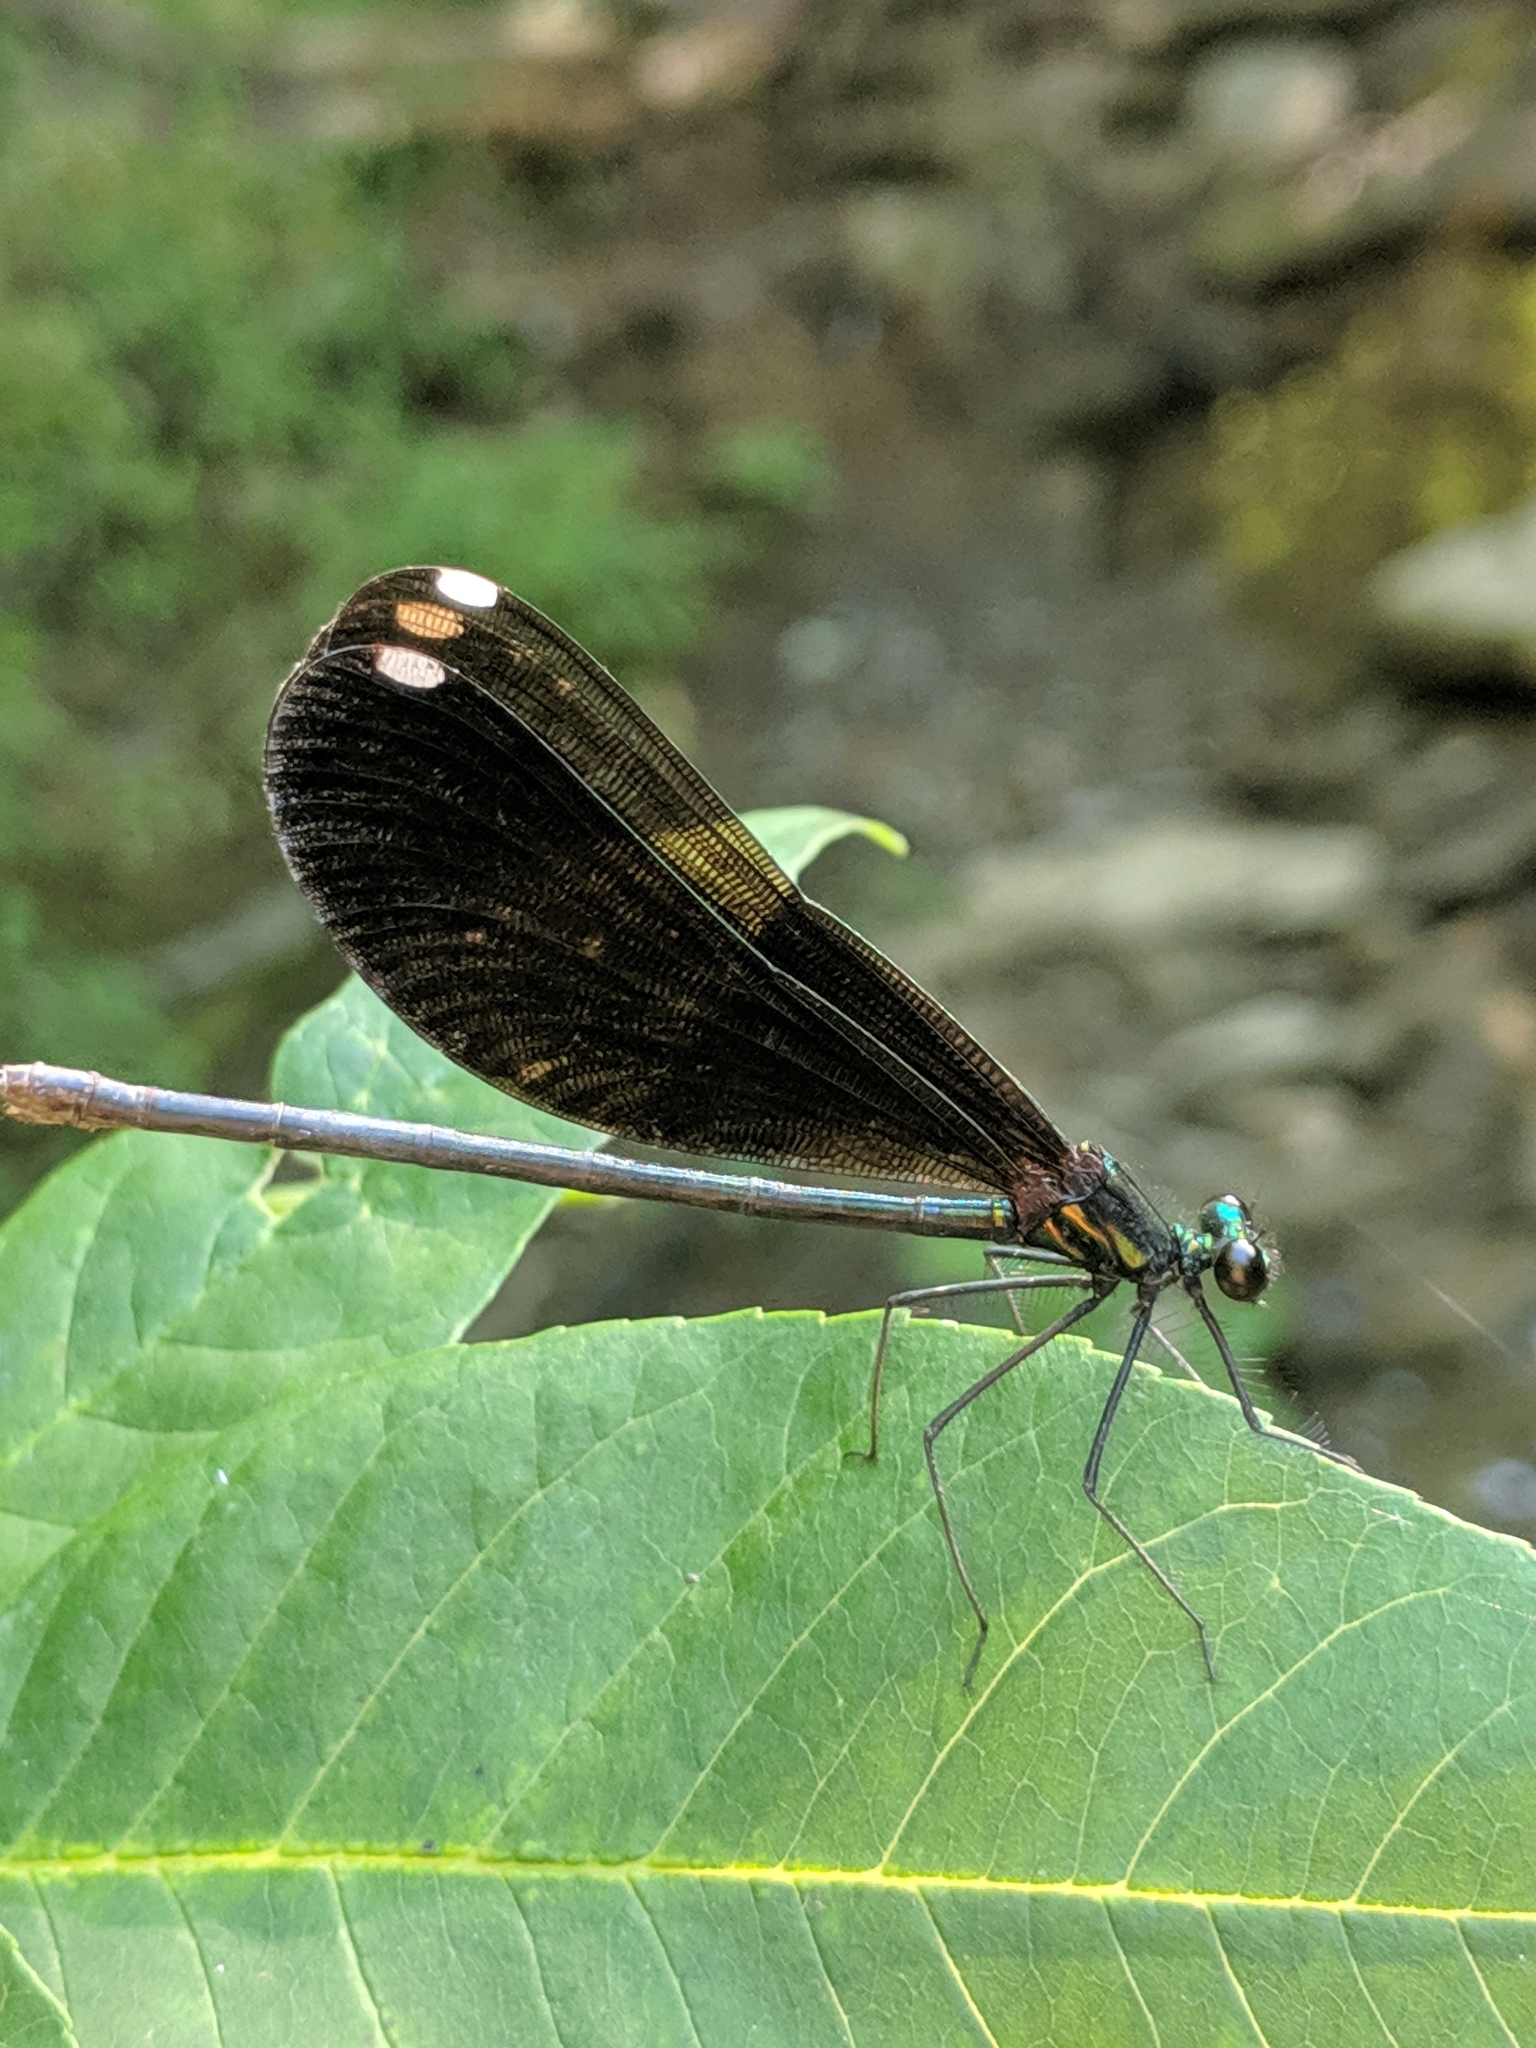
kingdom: Animalia
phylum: Arthropoda
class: Insecta
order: Odonata
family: Calopterygidae
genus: Calopteryx
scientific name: Calopteryx maculata
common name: Ebony jewelwing
